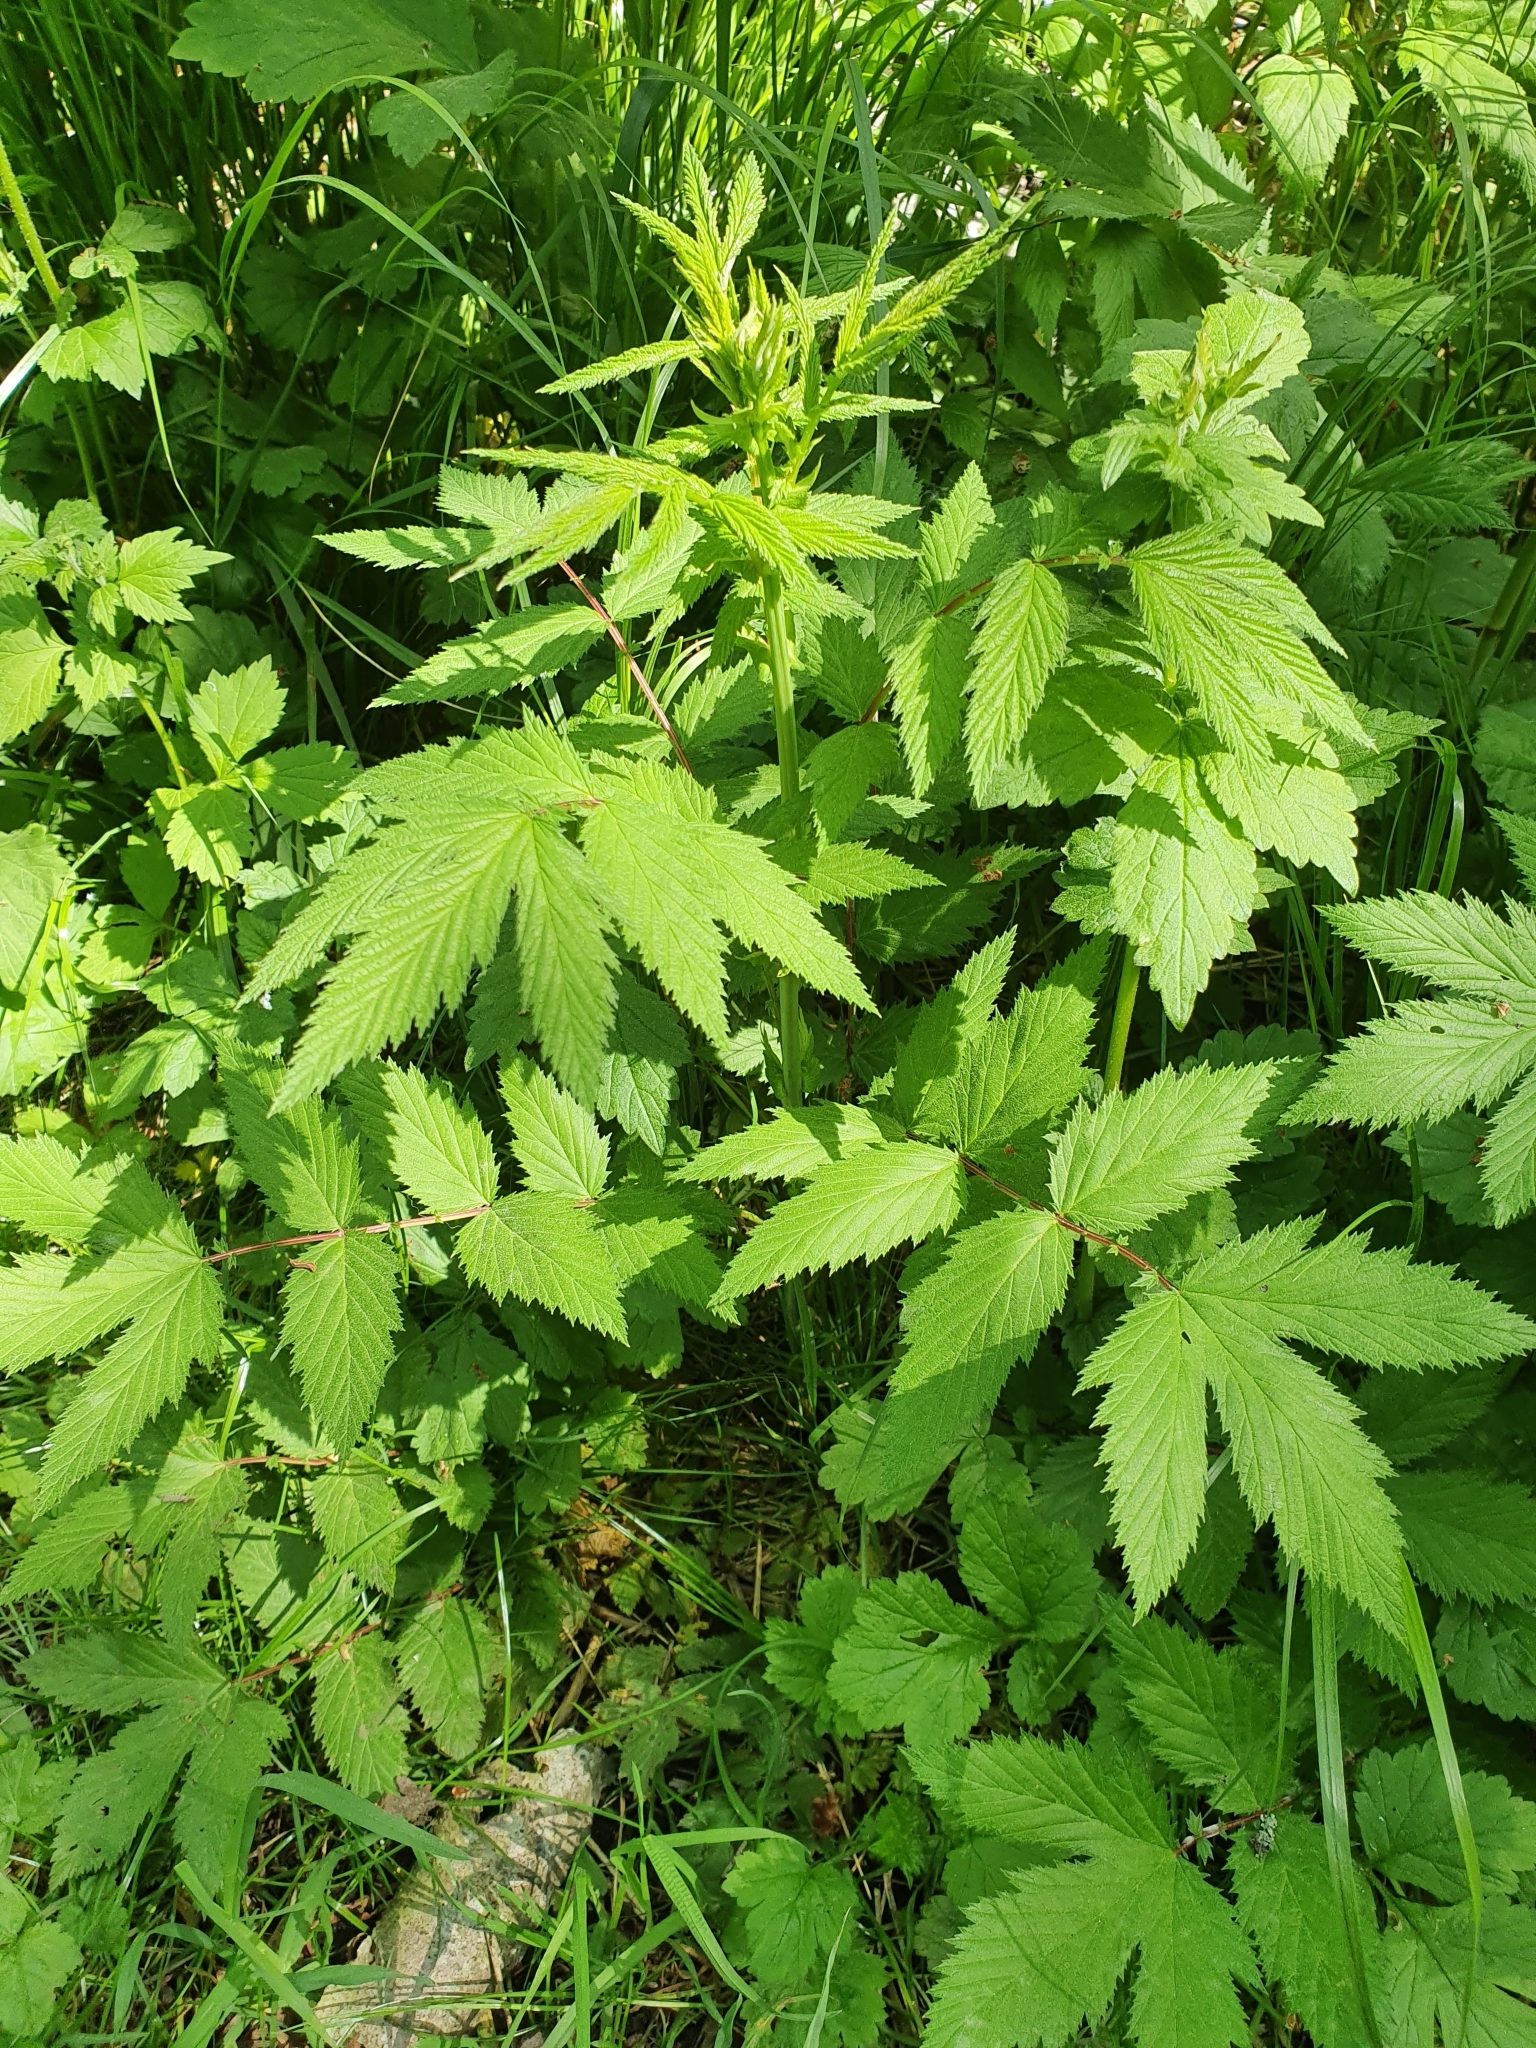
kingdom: Plantae
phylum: Tracheophyta
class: Magnoliopsida
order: Rosales
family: Rosaceae
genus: Filipendula
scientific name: Filipendula ulmaria
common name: Meadowsweet
